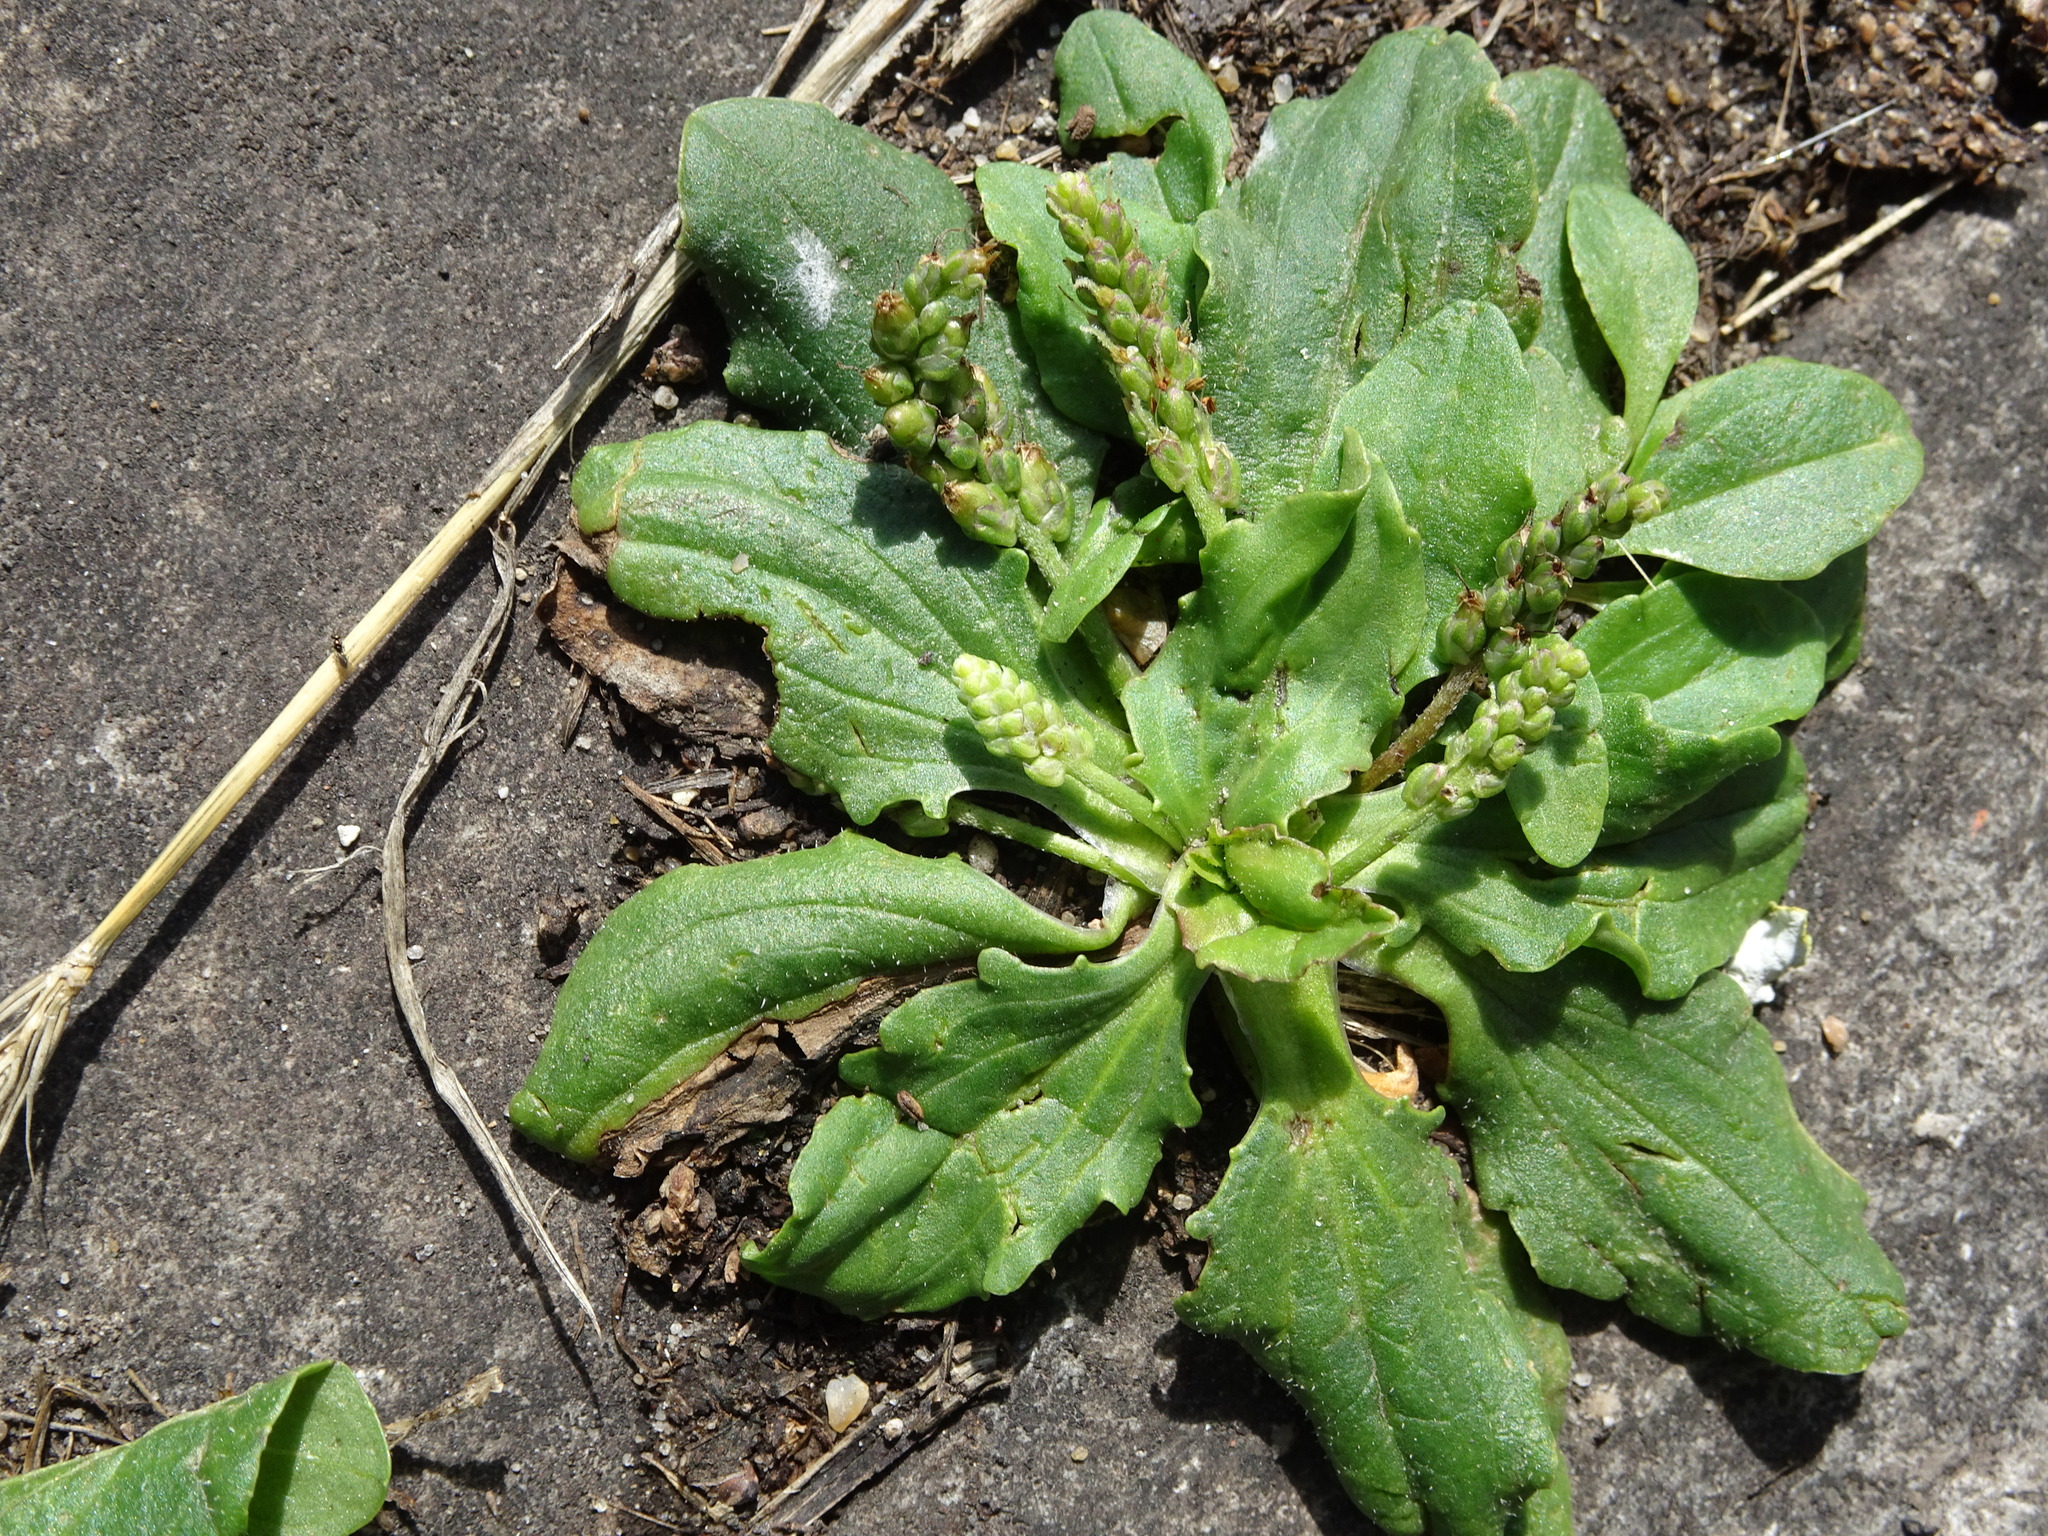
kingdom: Plantae
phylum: Tracheophyta
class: Magnoliopsida
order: Lamiales
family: Plantaginaceae
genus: Plantago
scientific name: Plantago major
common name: Common plantain
